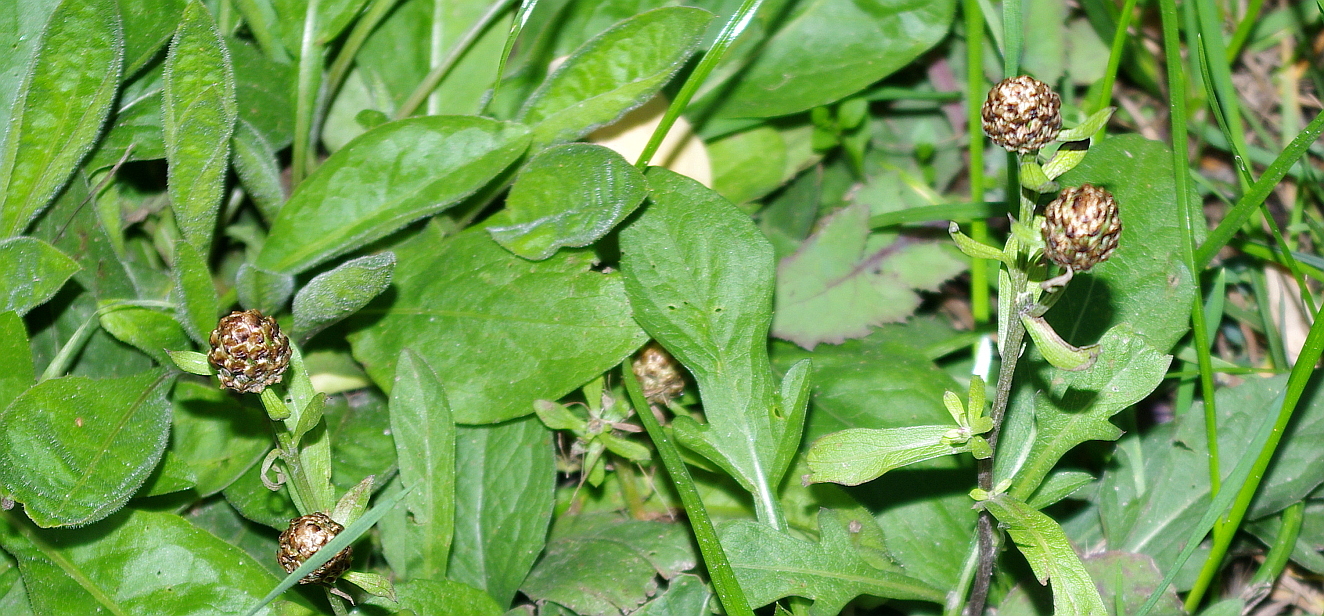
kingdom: Plantae
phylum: Tracheophyta
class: Magnoliopsida
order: Asterales
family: Asteraceae
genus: Centaurea
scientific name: Centaurea jacea
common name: Brown knapweed
